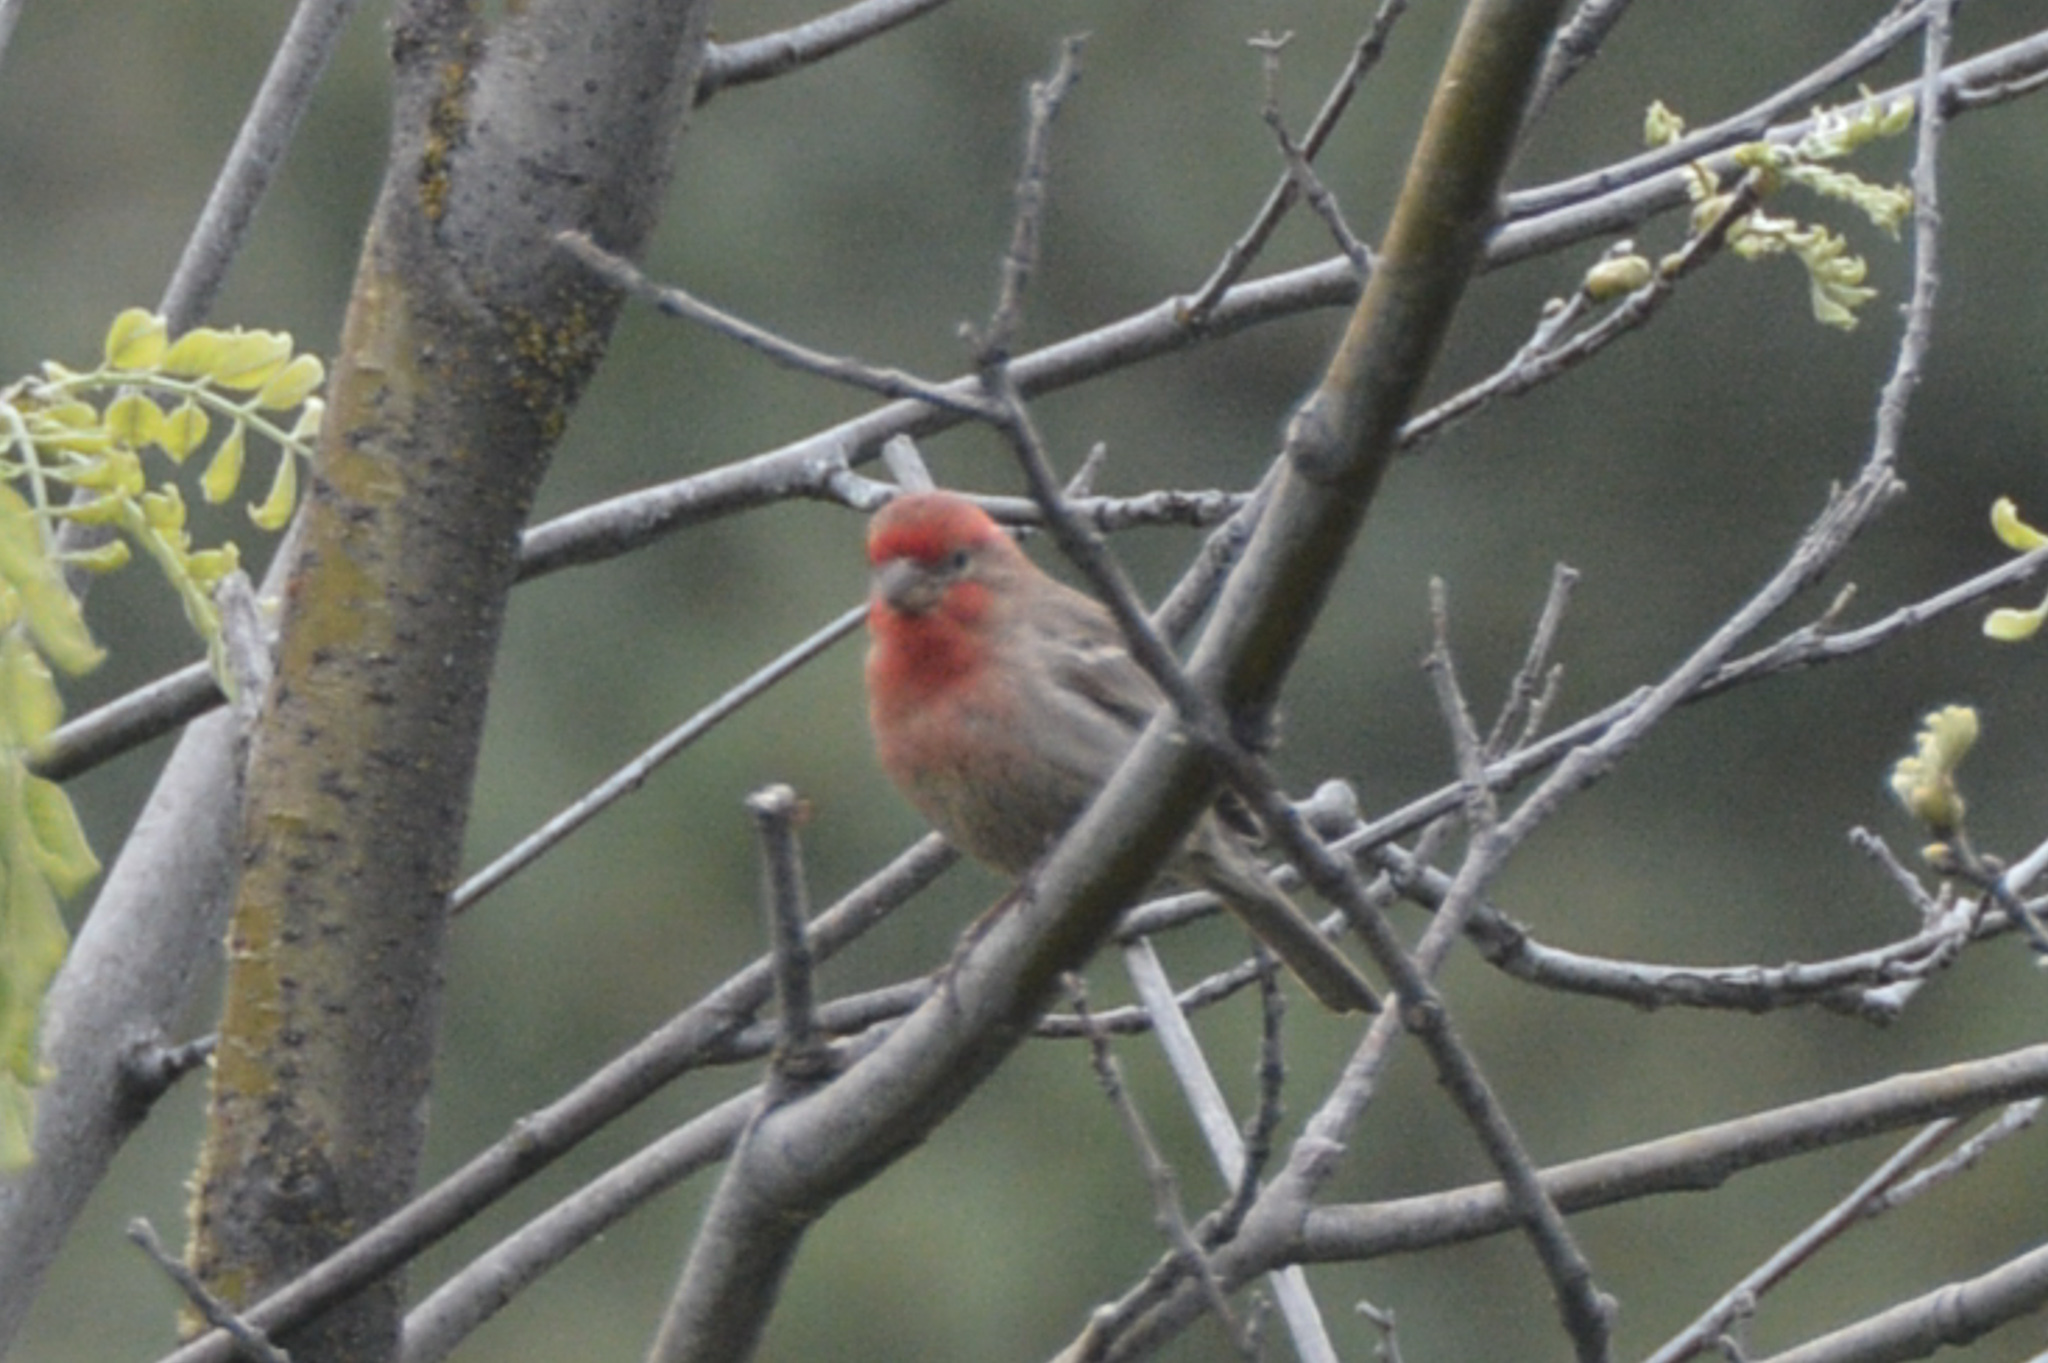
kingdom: Animalia
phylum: Chordata
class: Aves
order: Passeriformes
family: Fringillidae
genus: Haemorhous
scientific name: Haemorhous mexicanus
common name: House finch
